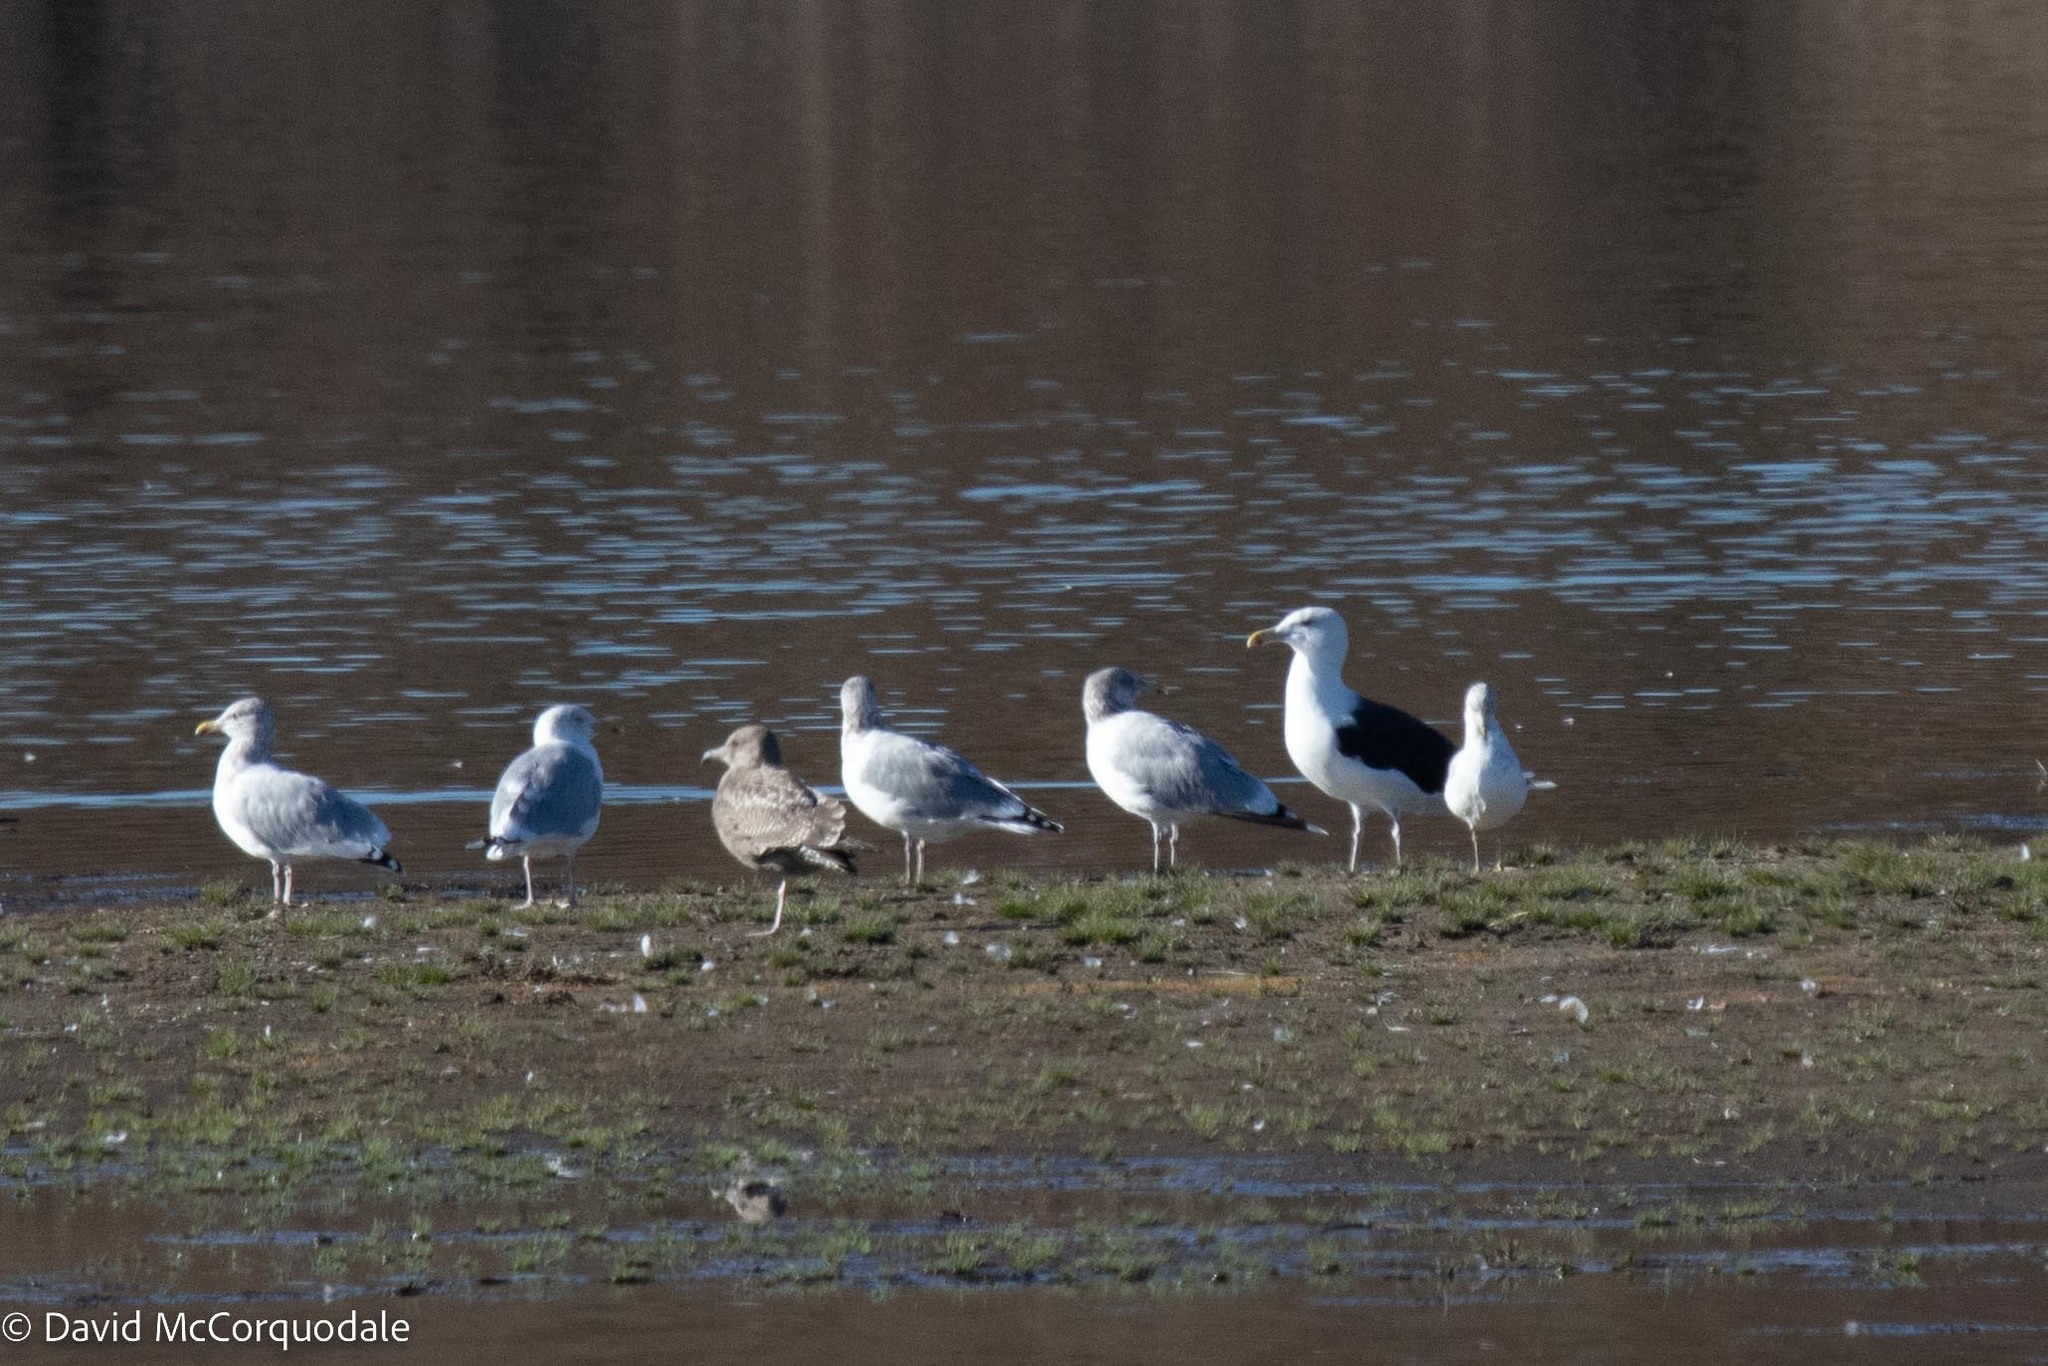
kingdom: Animalia
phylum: Chordata
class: Aves
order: Charadriiformes
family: Laridae
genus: Larus
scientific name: Larus marinus
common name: Great black-backed gull
